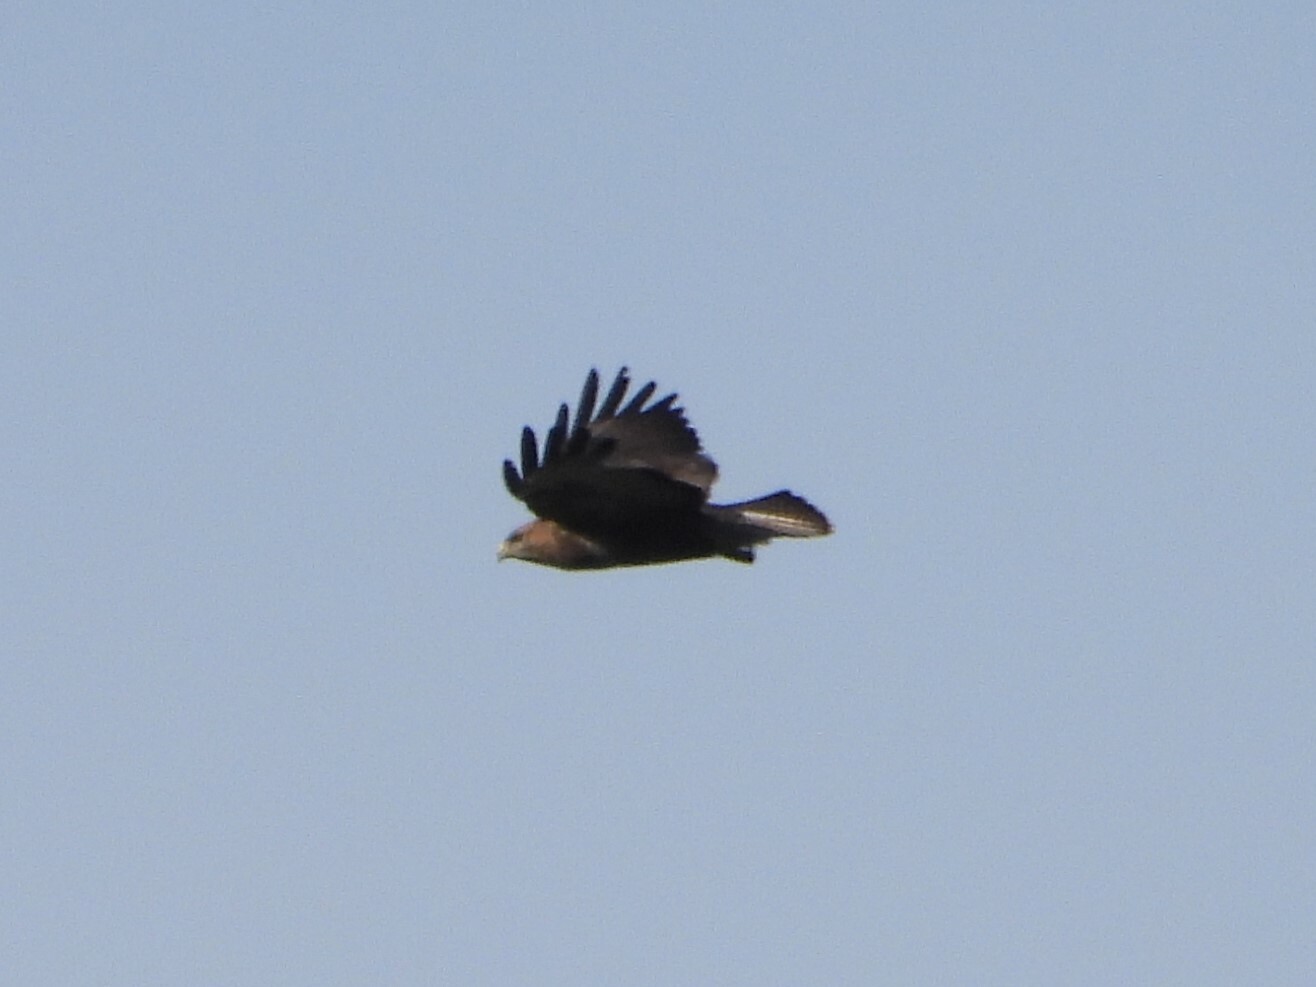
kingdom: Animalia
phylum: Chordata
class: Aves
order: Accipitriformes
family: Accipitridae
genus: Buteo
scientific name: Buteo buteo
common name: Common buzzard
